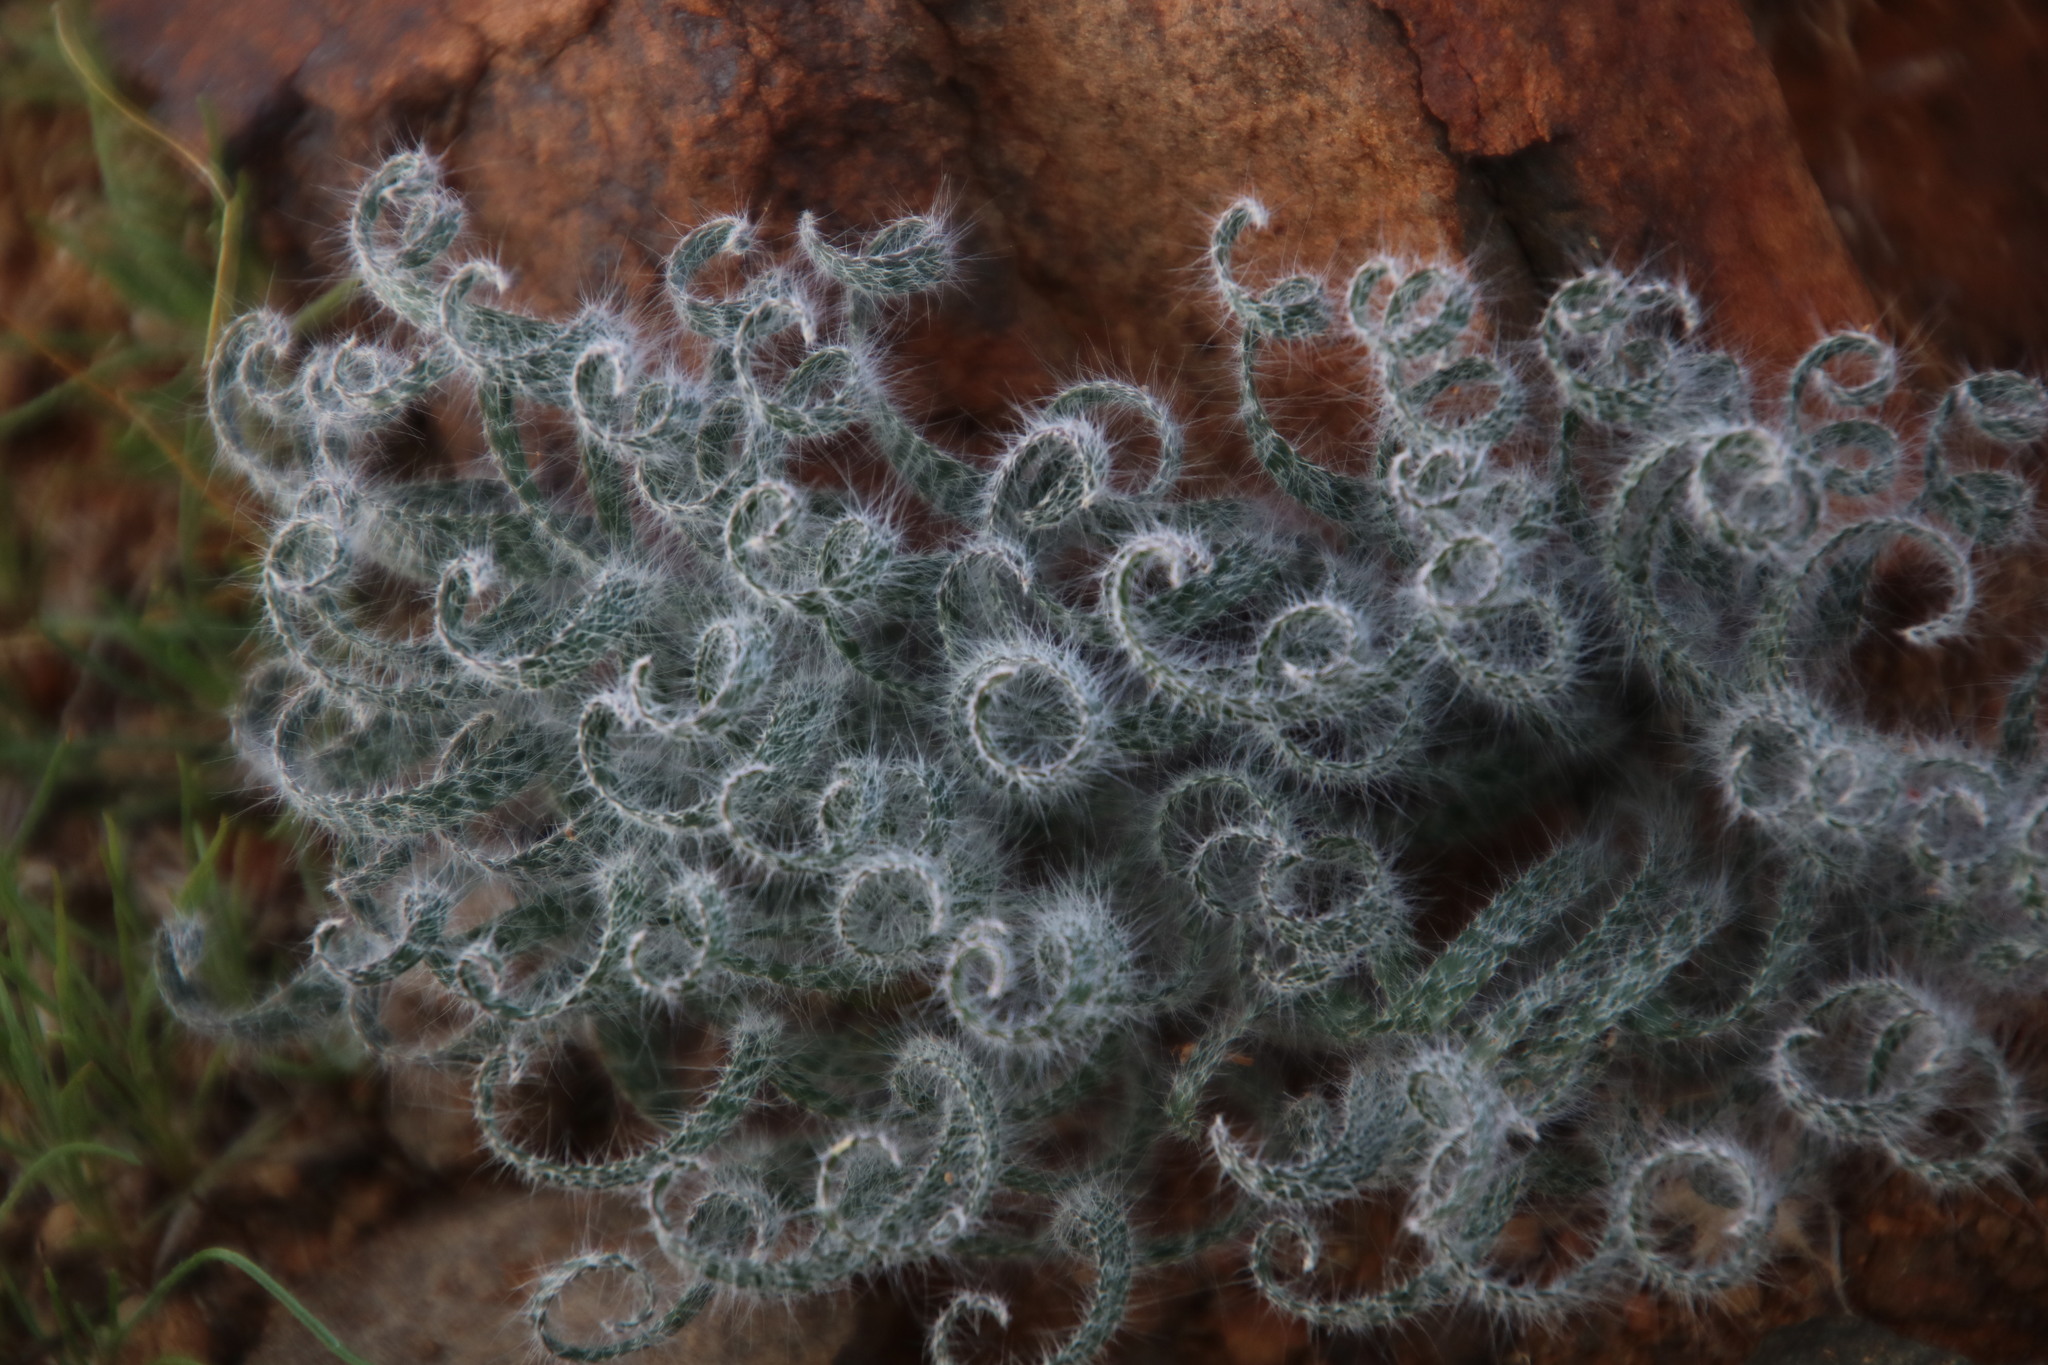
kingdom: Plantae
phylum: Tracheophyta
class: Liliopsida
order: Asparagales
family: Amaryllidaceae
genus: Gethyllis
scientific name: Gethyllis villosa
